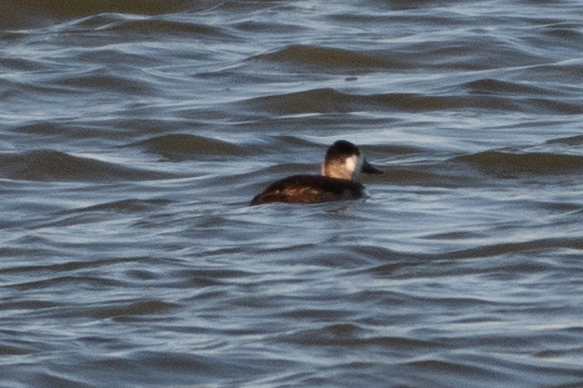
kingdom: Animalia
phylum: Chordata
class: Aves
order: Anseriformes
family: Anatidae
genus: Oxyura
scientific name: Oxyura jamaicensis
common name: Ruddy duck
